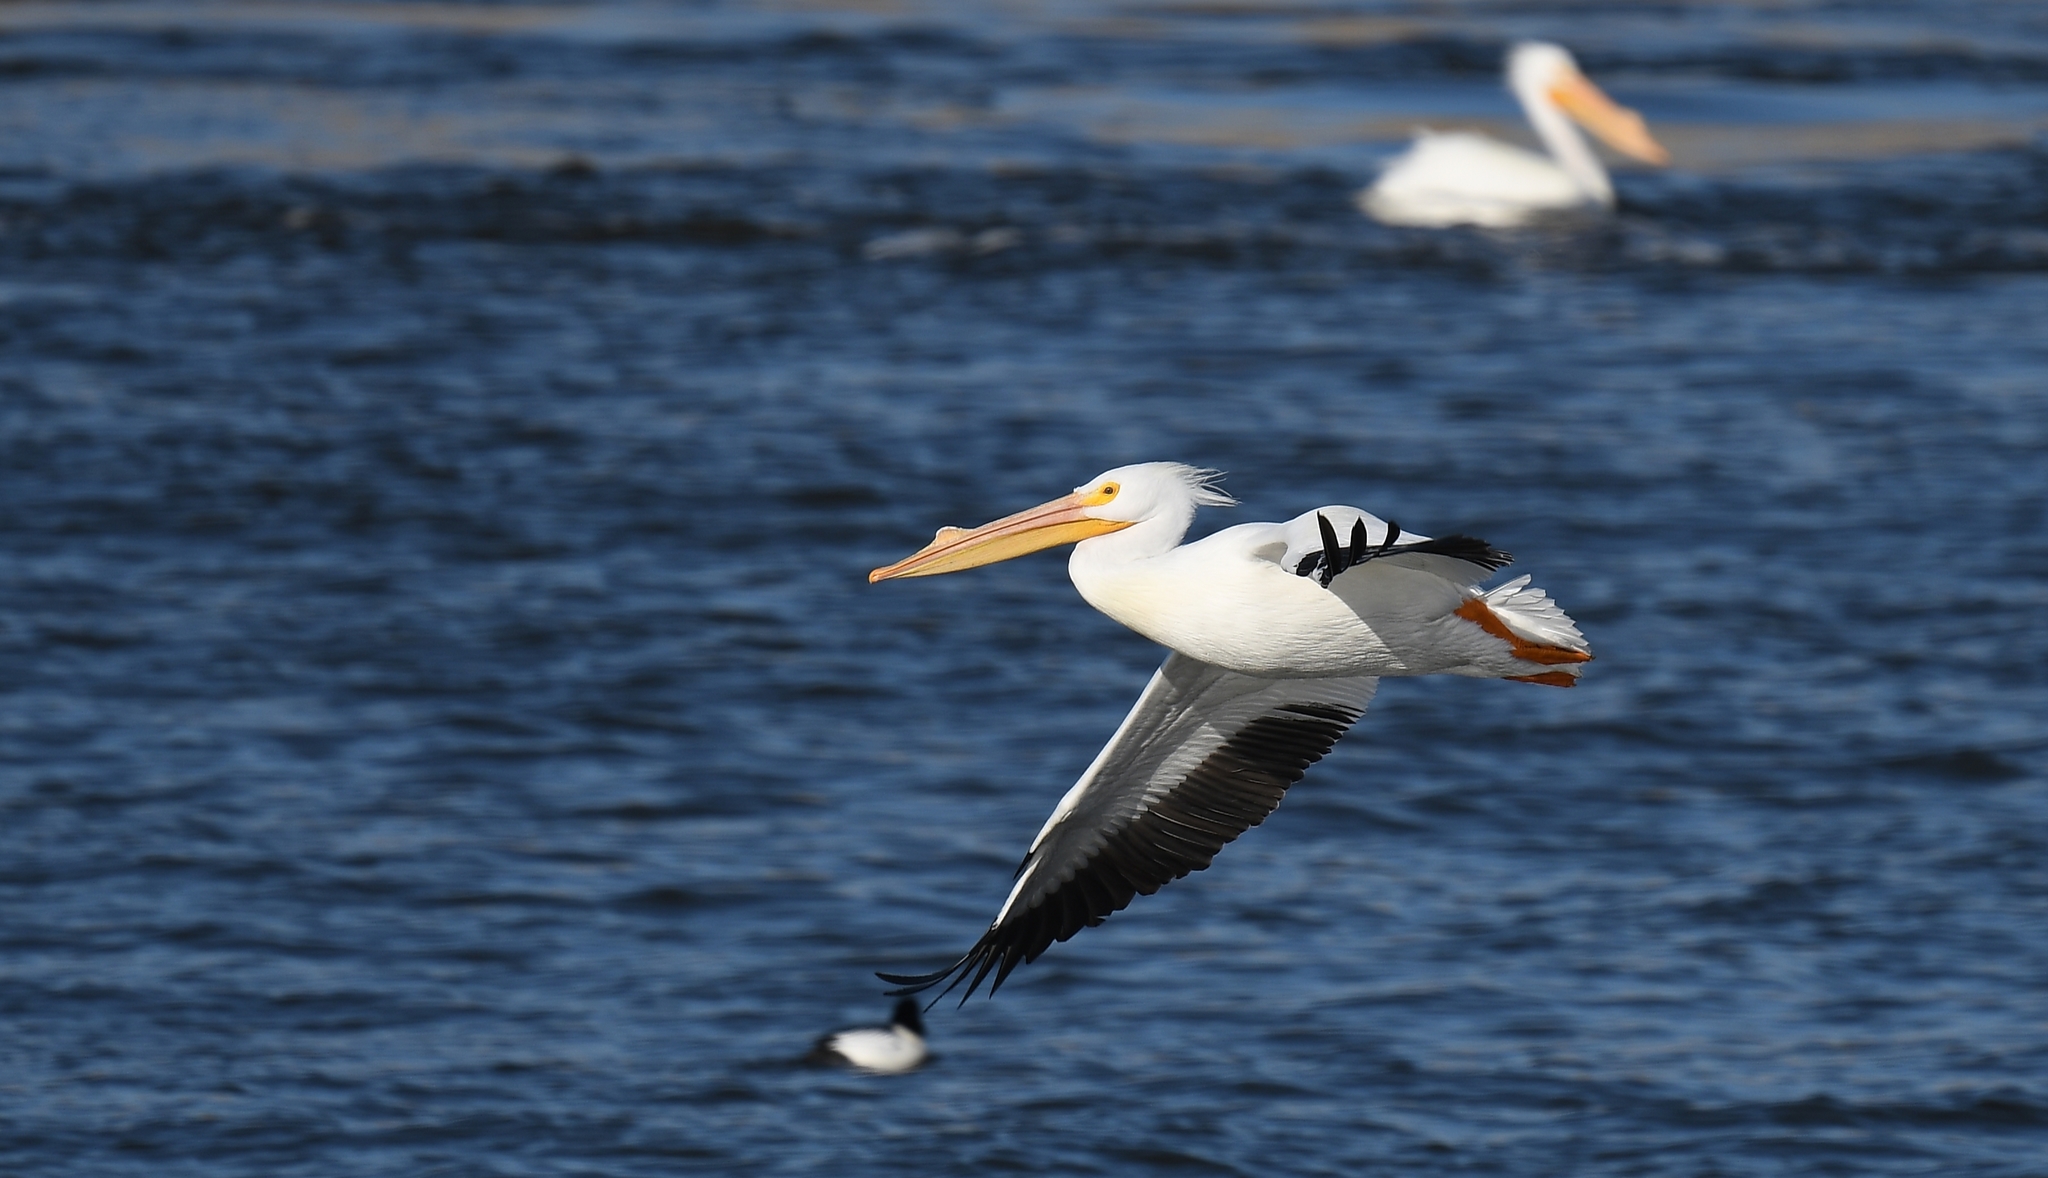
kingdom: Animalia
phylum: Chordata
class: Aves
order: Pelecaniformes
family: Pelecanidae
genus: Pelecanus
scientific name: Pelecanus erythrorhynchos
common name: American white pelican
